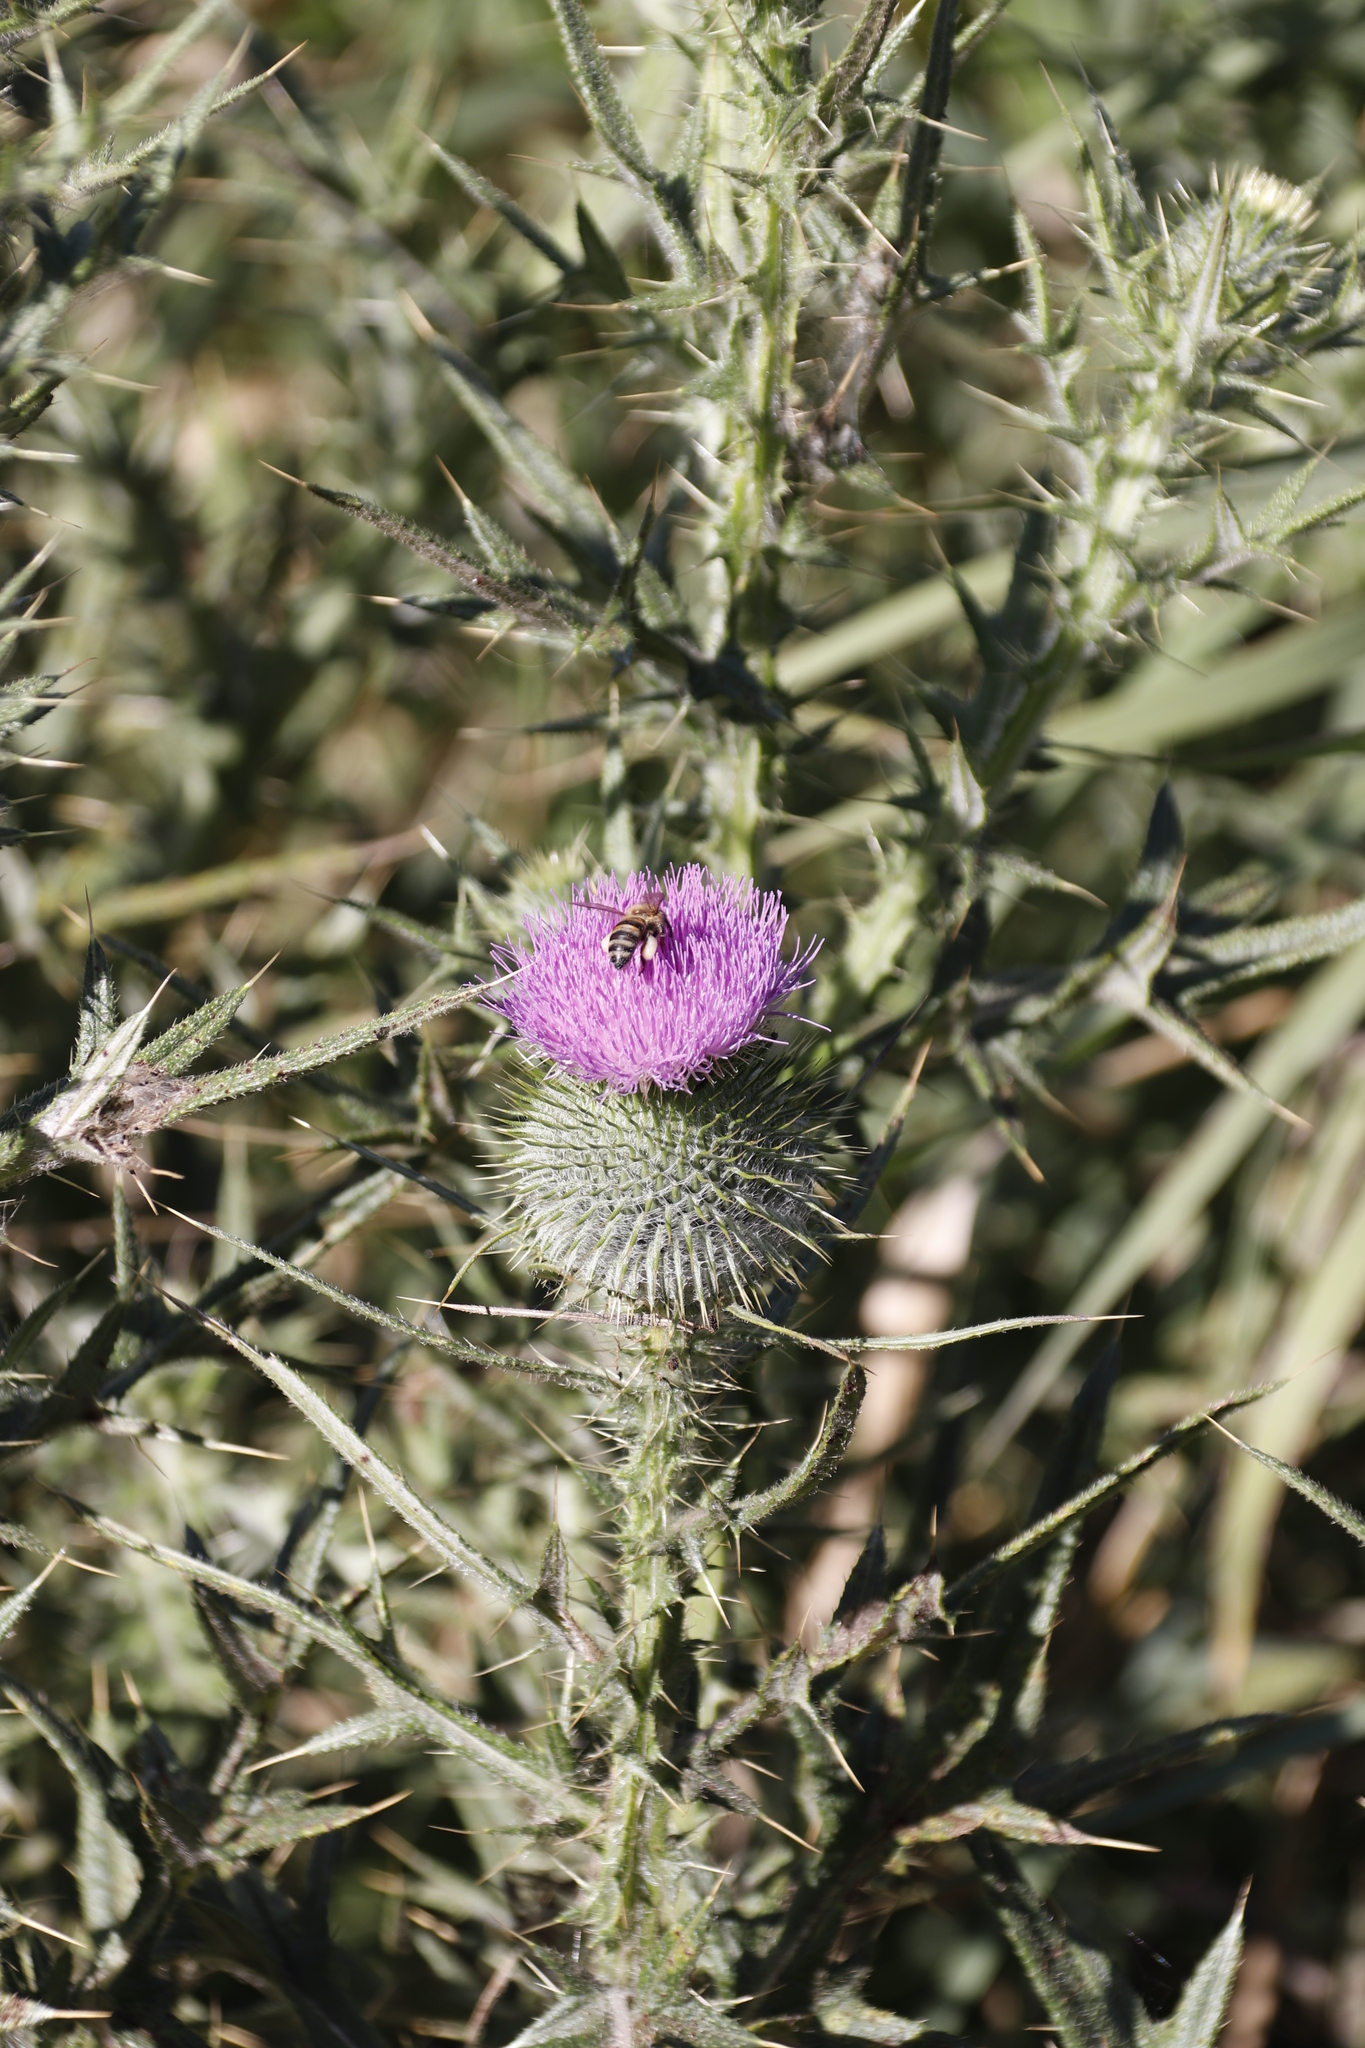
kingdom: Plantae
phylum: Tracheophyta
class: Magnoliopsida
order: Asterales
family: Asteraceae
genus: Cirsium
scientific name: Cirsium vulgare
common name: Bull thistle
